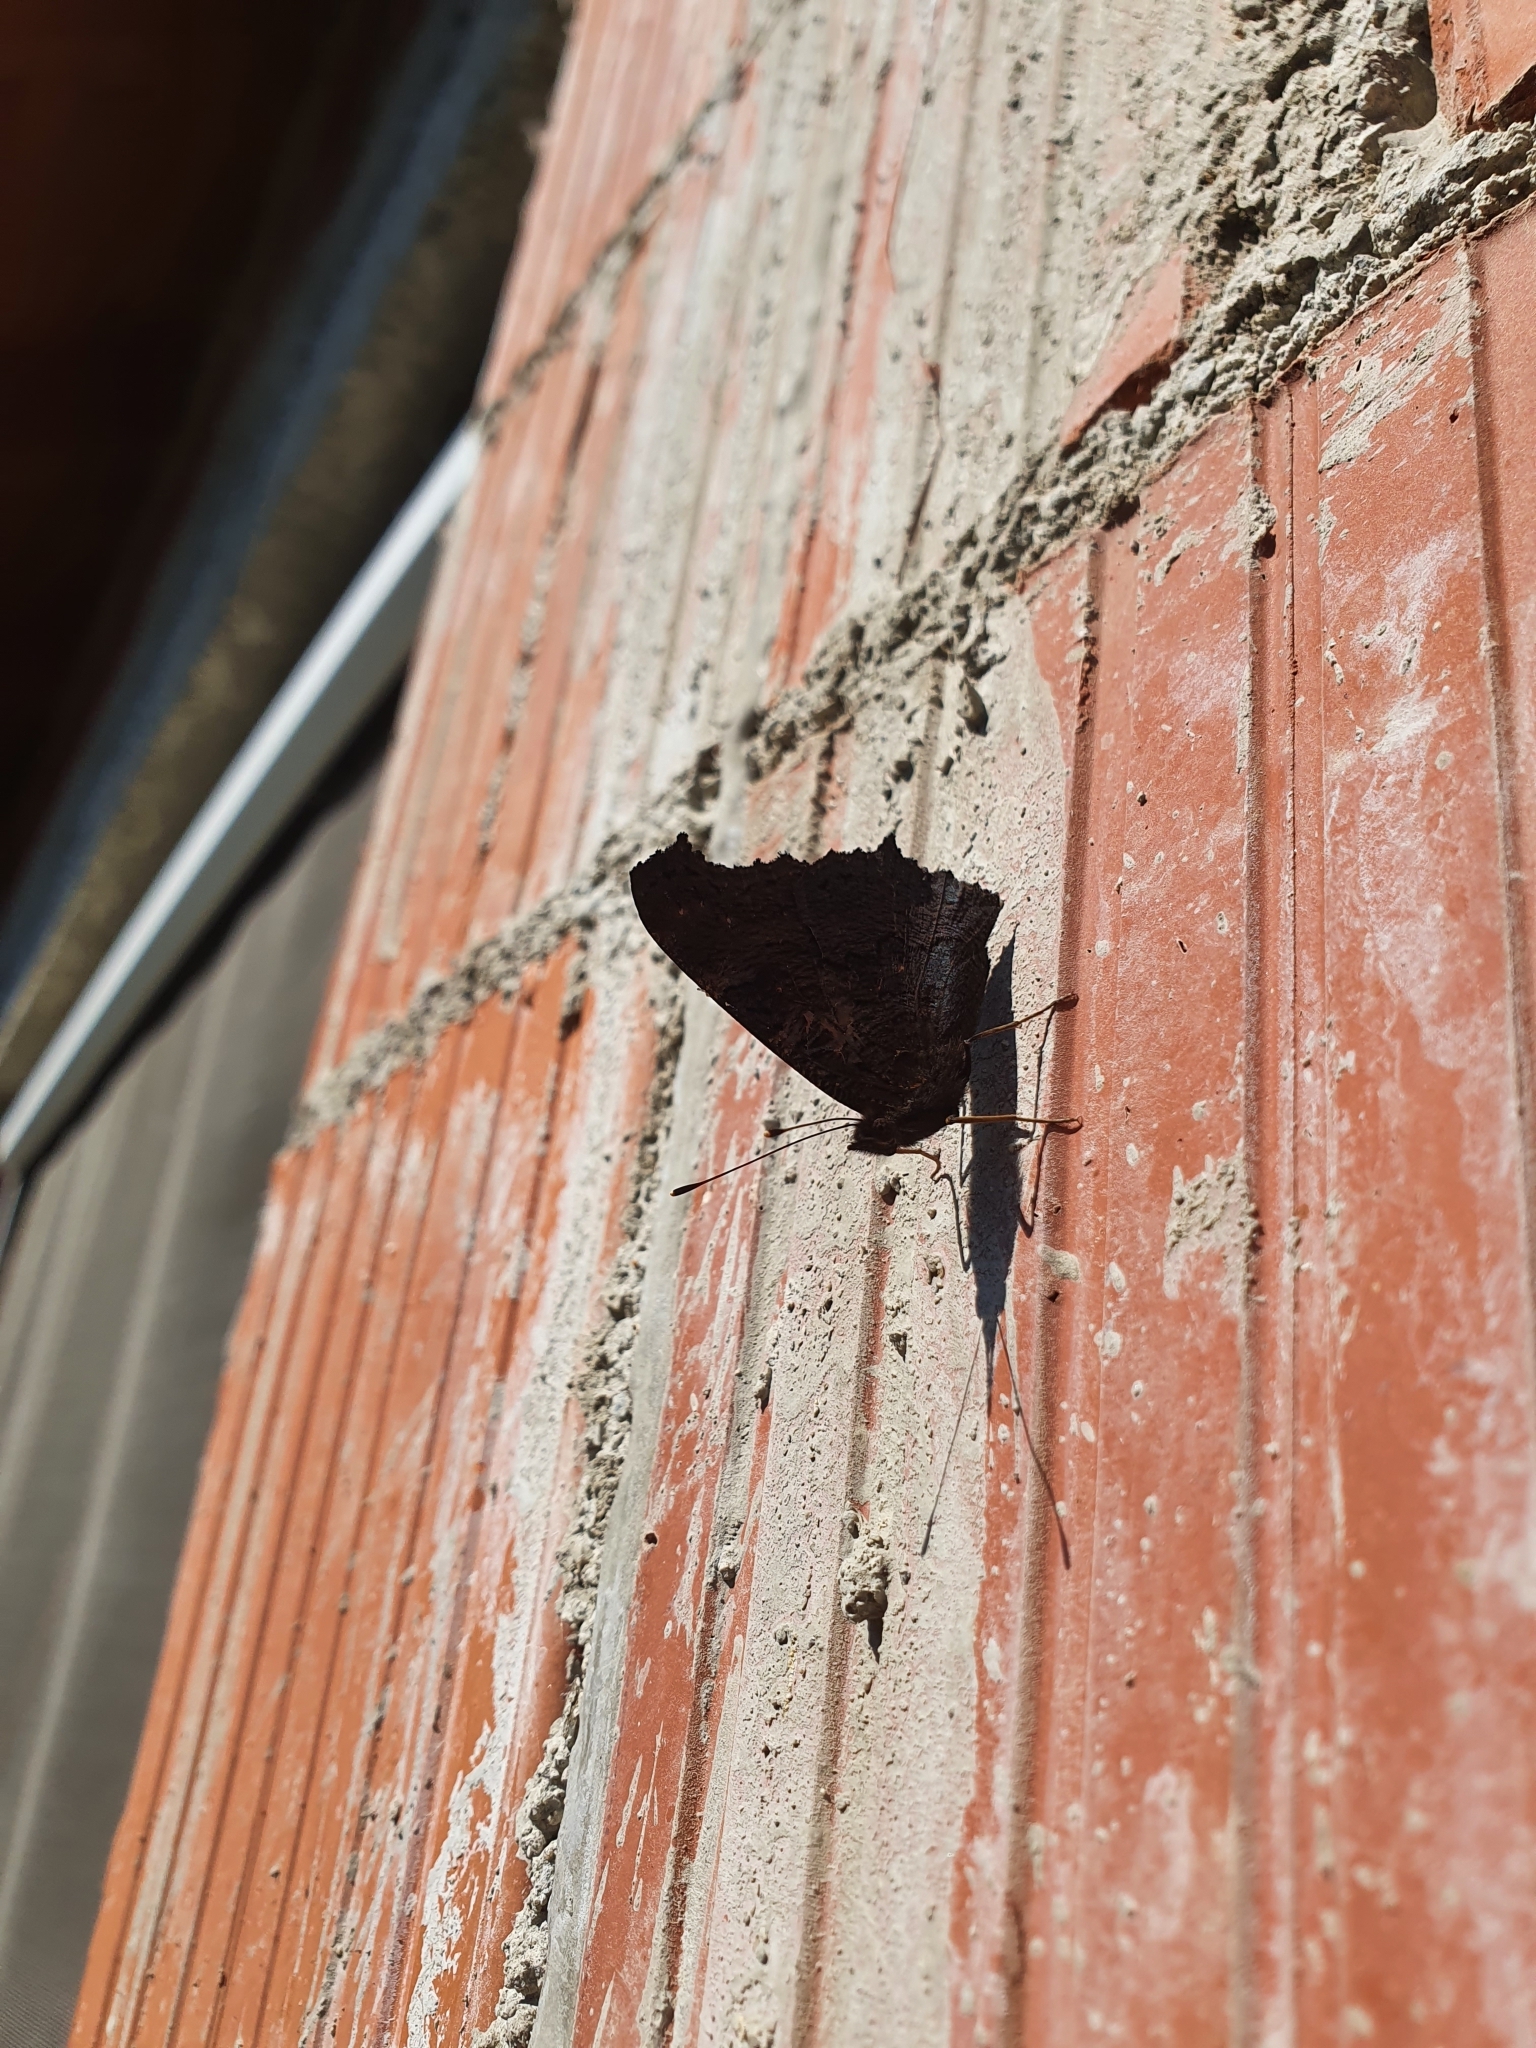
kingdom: Animalia
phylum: Arthropoda
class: Insecta
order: Lepidoptera
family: Nymphalidae
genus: Aglais
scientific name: Aglais io
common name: Peacock
